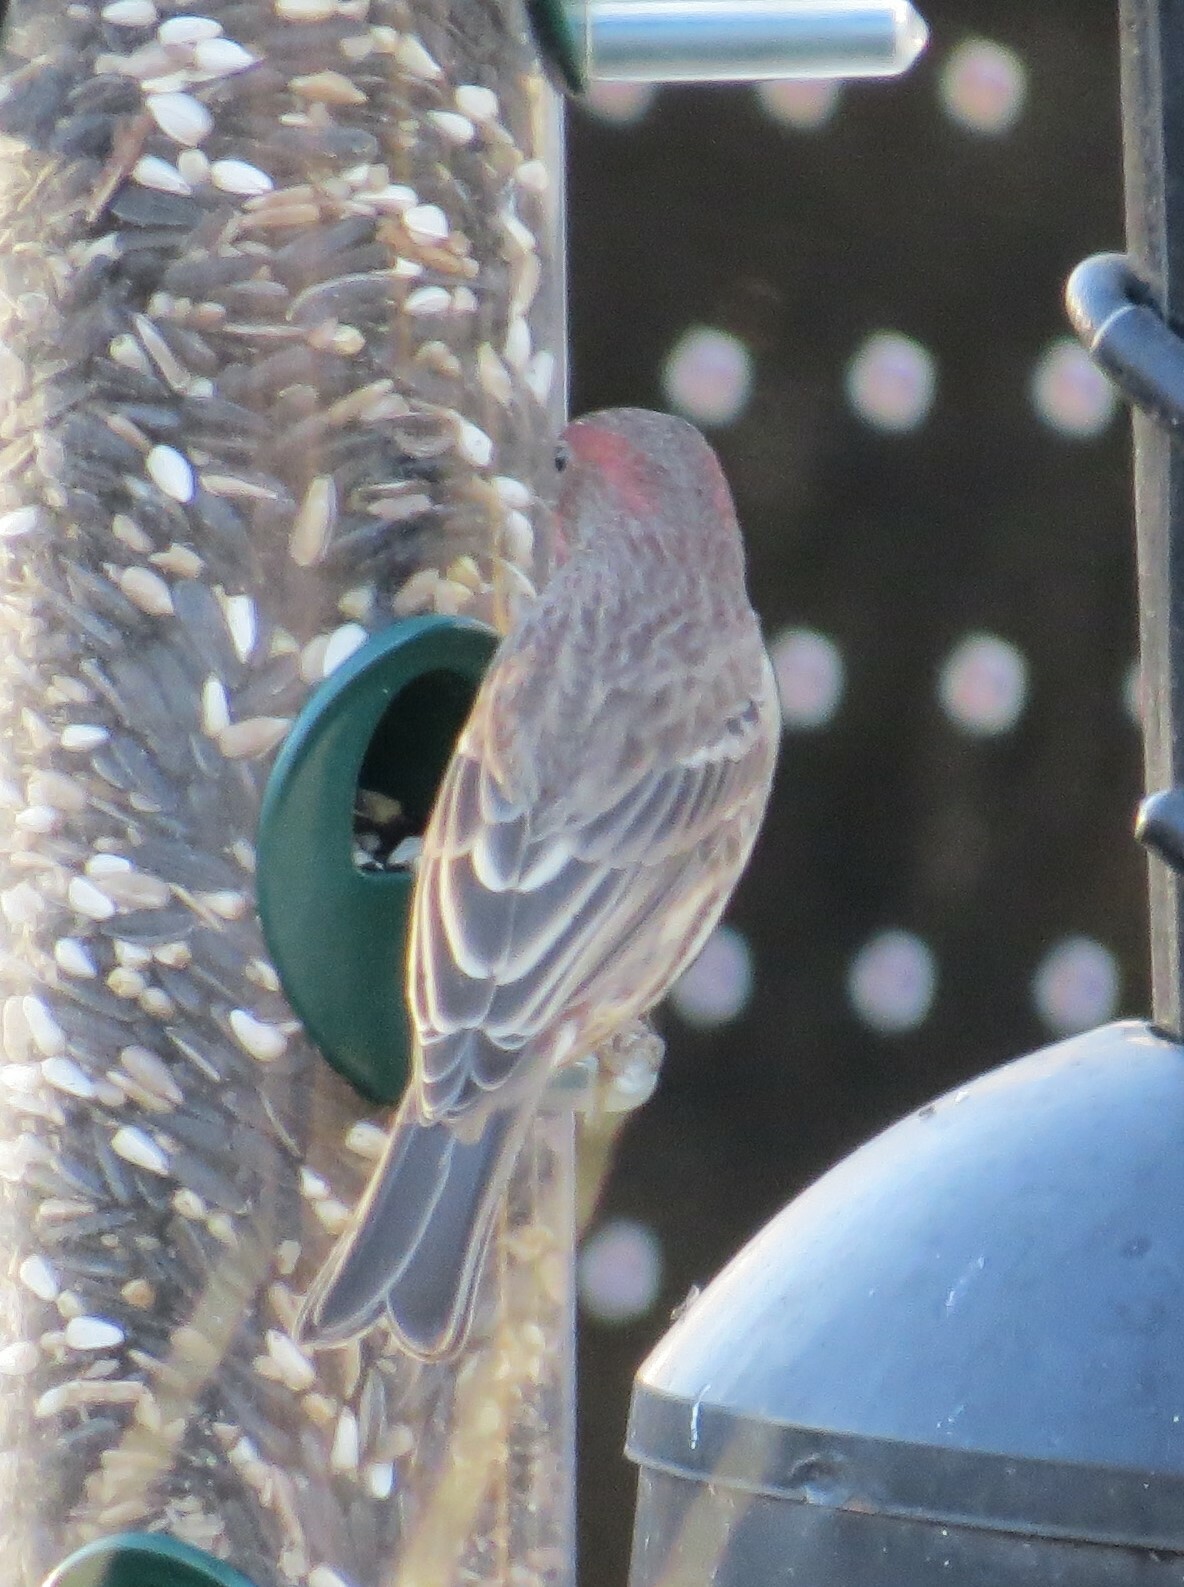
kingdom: Animalia
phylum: Chordata
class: Aves
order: Passeriformes
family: Fringillidae
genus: Haemorhous
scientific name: Haemorhous mexicanus
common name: House finch
